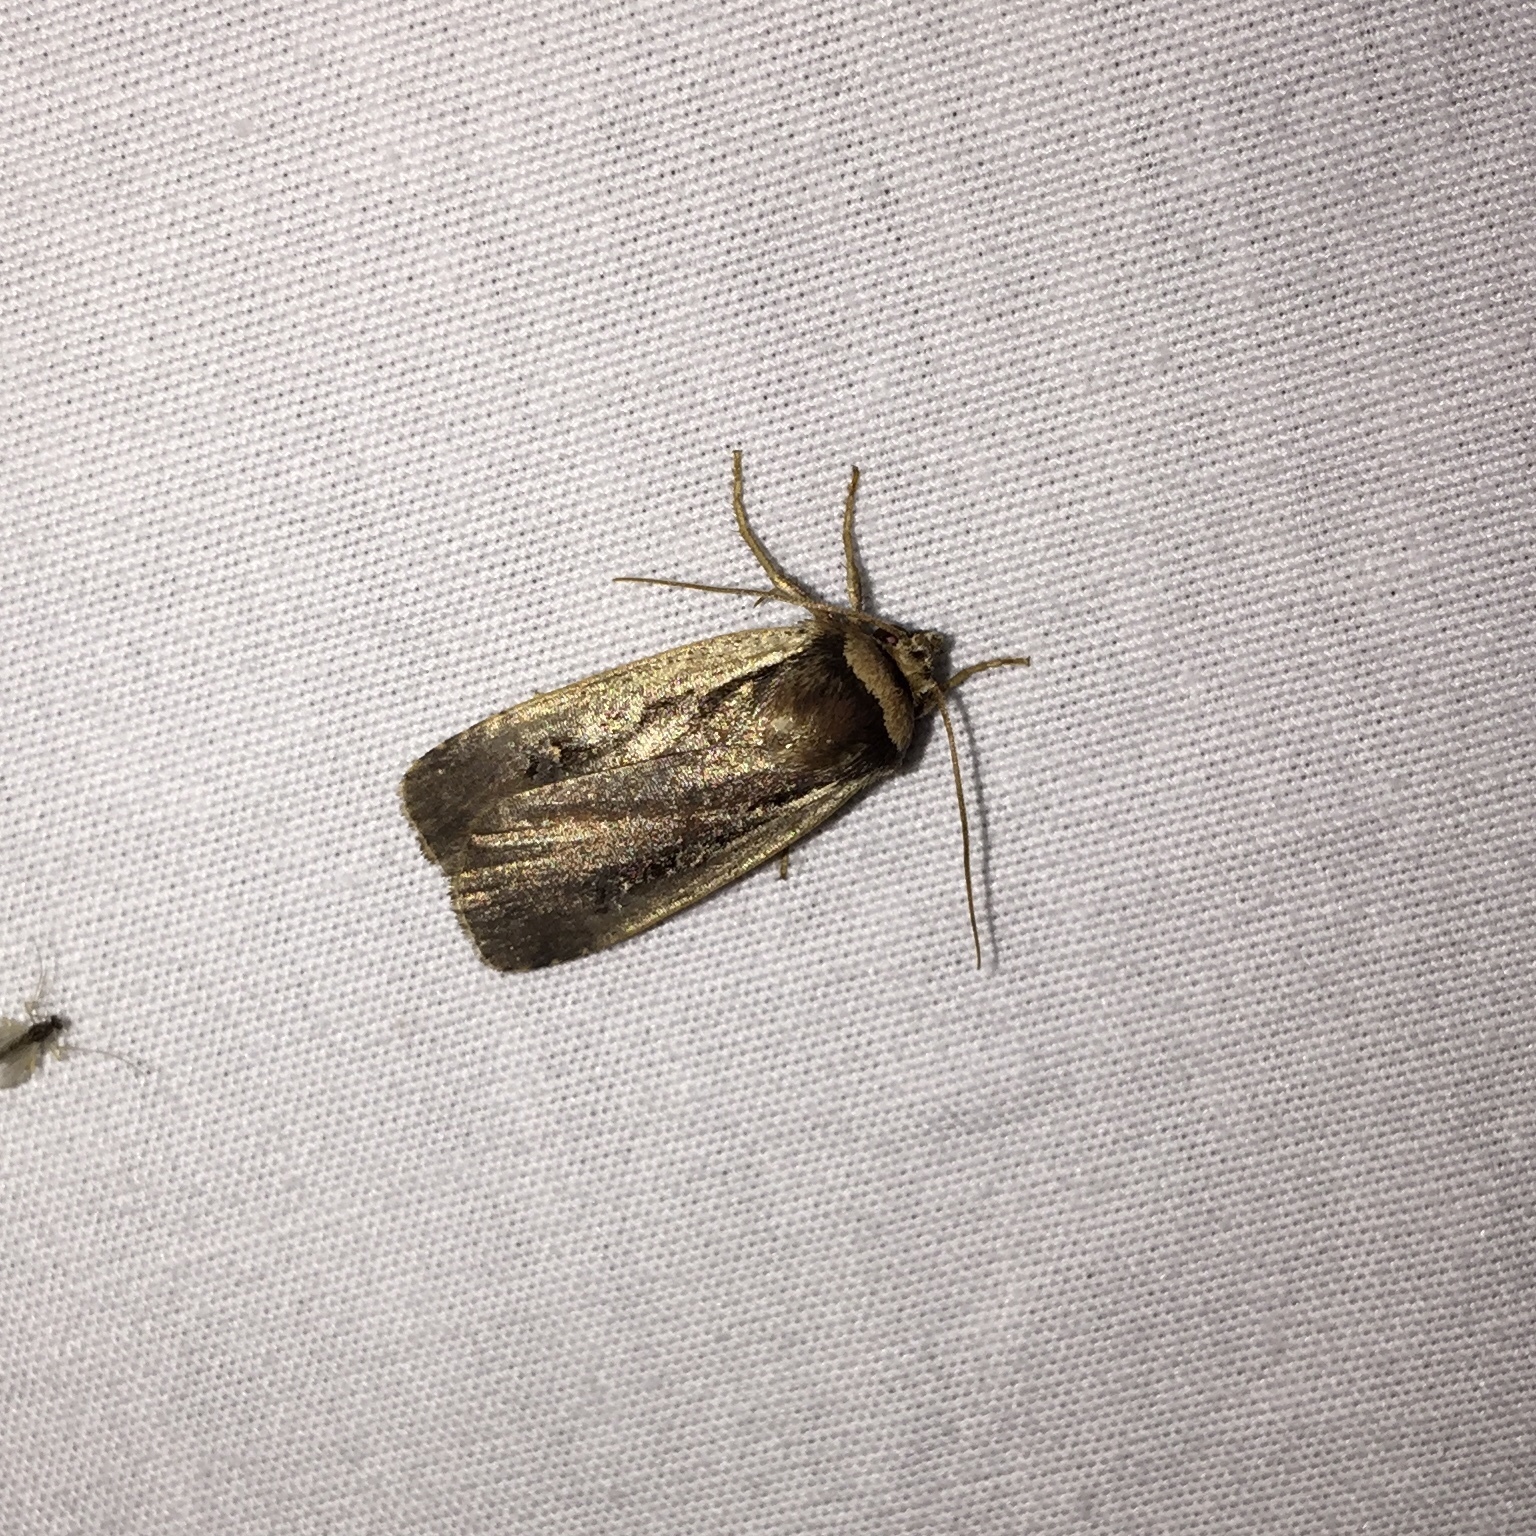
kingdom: Animalia
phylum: Arthropoda
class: Insecta
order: Lepidoptera
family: Noctuidae
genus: Ochropleura
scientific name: Ochropleura implecta
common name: Flame-shouldered dart
